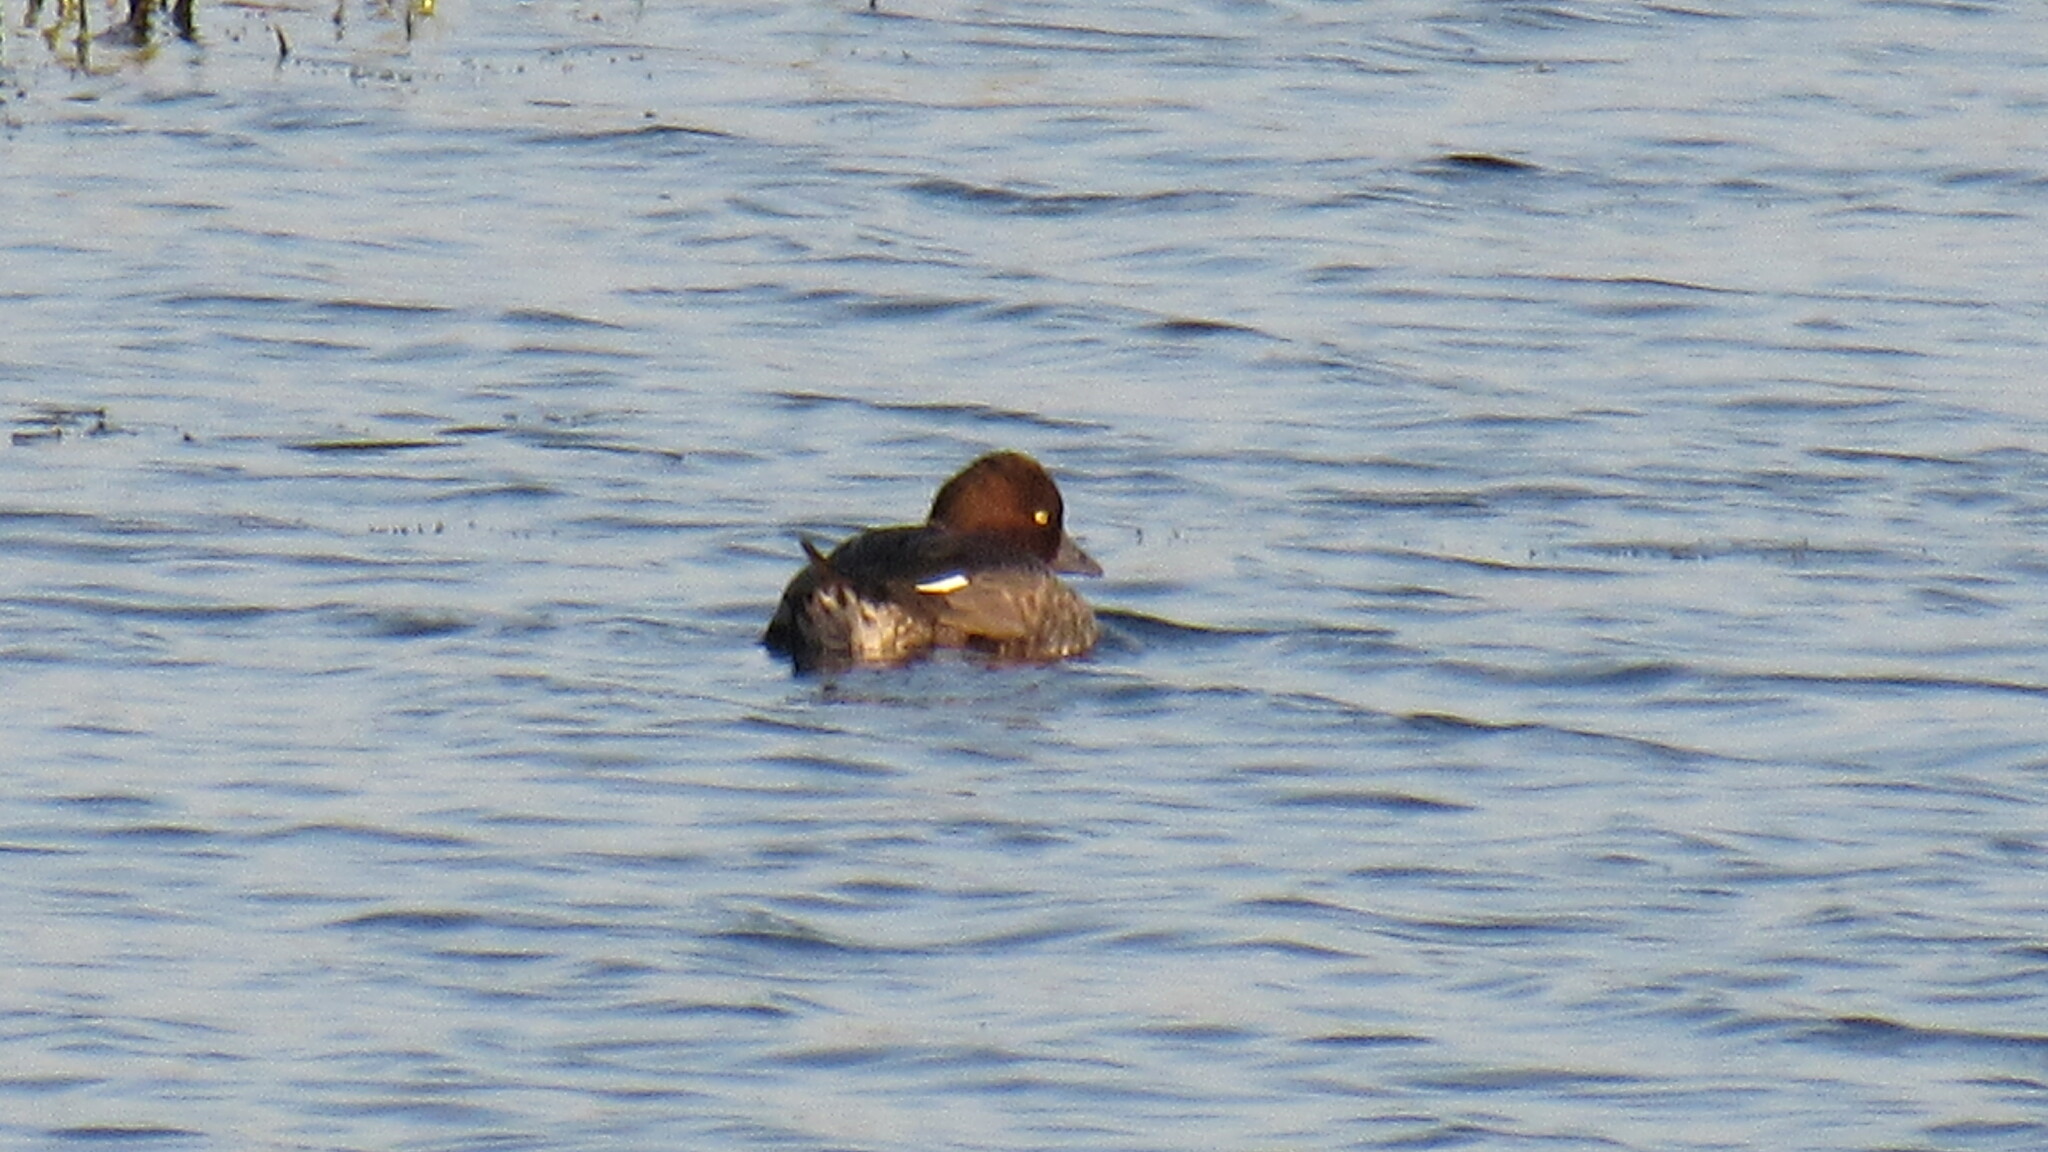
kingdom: Animalia
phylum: Chordata
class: Aves
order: Anseriformes
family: Anatidae
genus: Bucephala
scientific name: Bucephala clangula
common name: Common goldeneye
